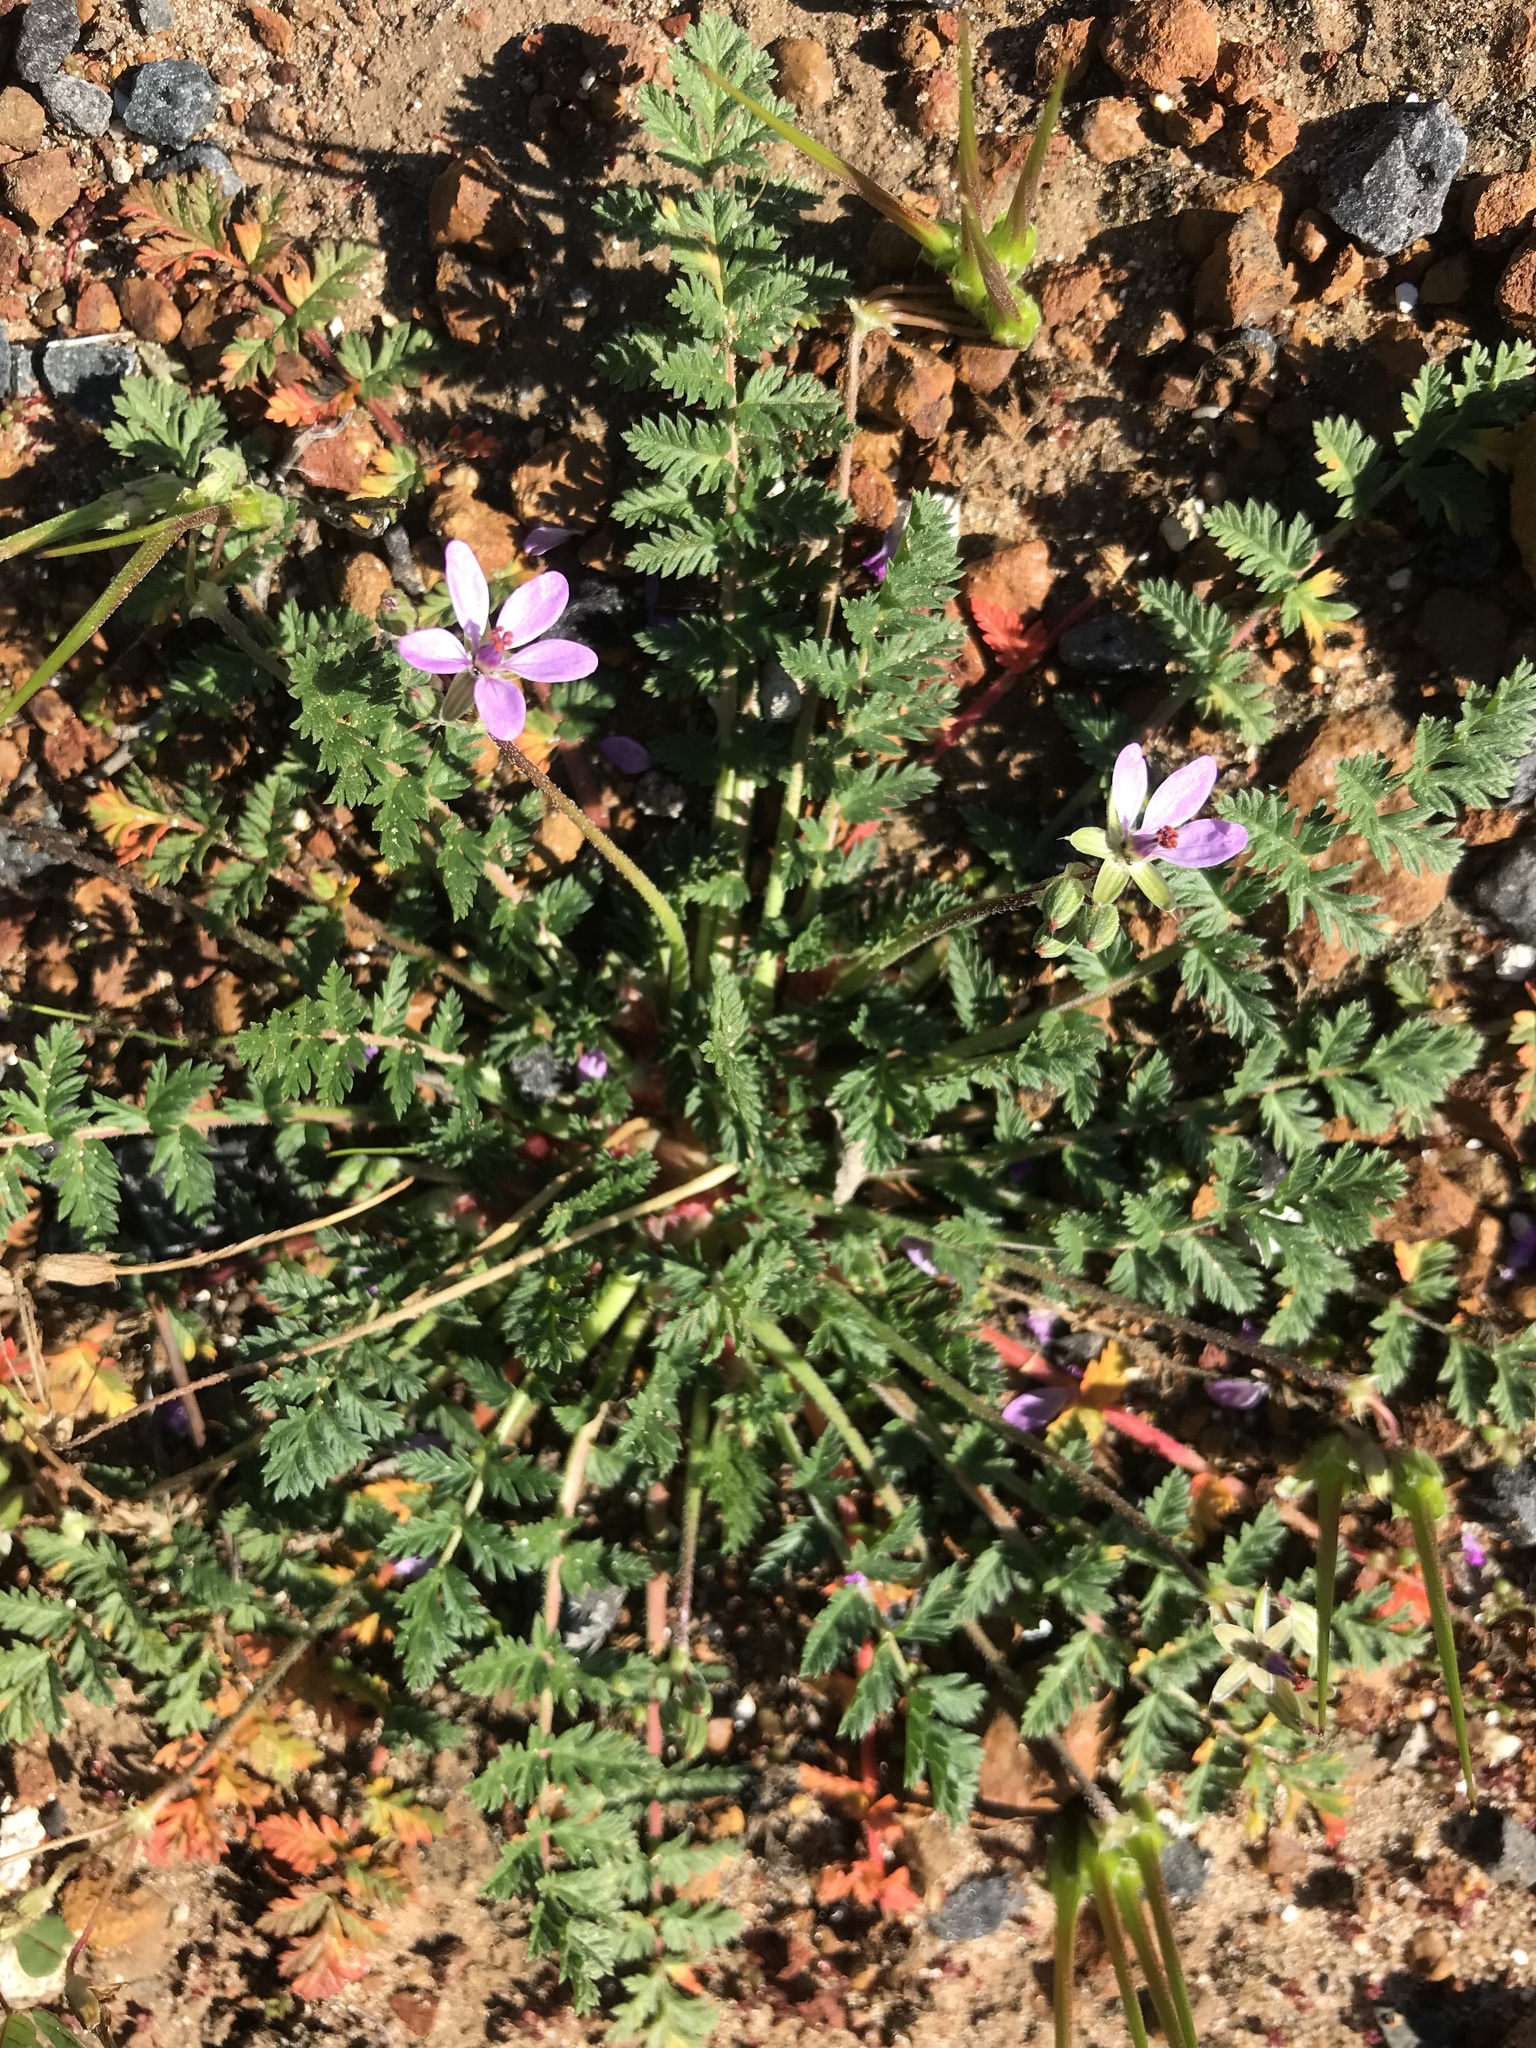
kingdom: Plantae
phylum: Tracheophyta
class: Magnoliopsida
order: Geraniales
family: Geraniaceae
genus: Erodium
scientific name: Erodium cicutarium
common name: Common stork's-bill
